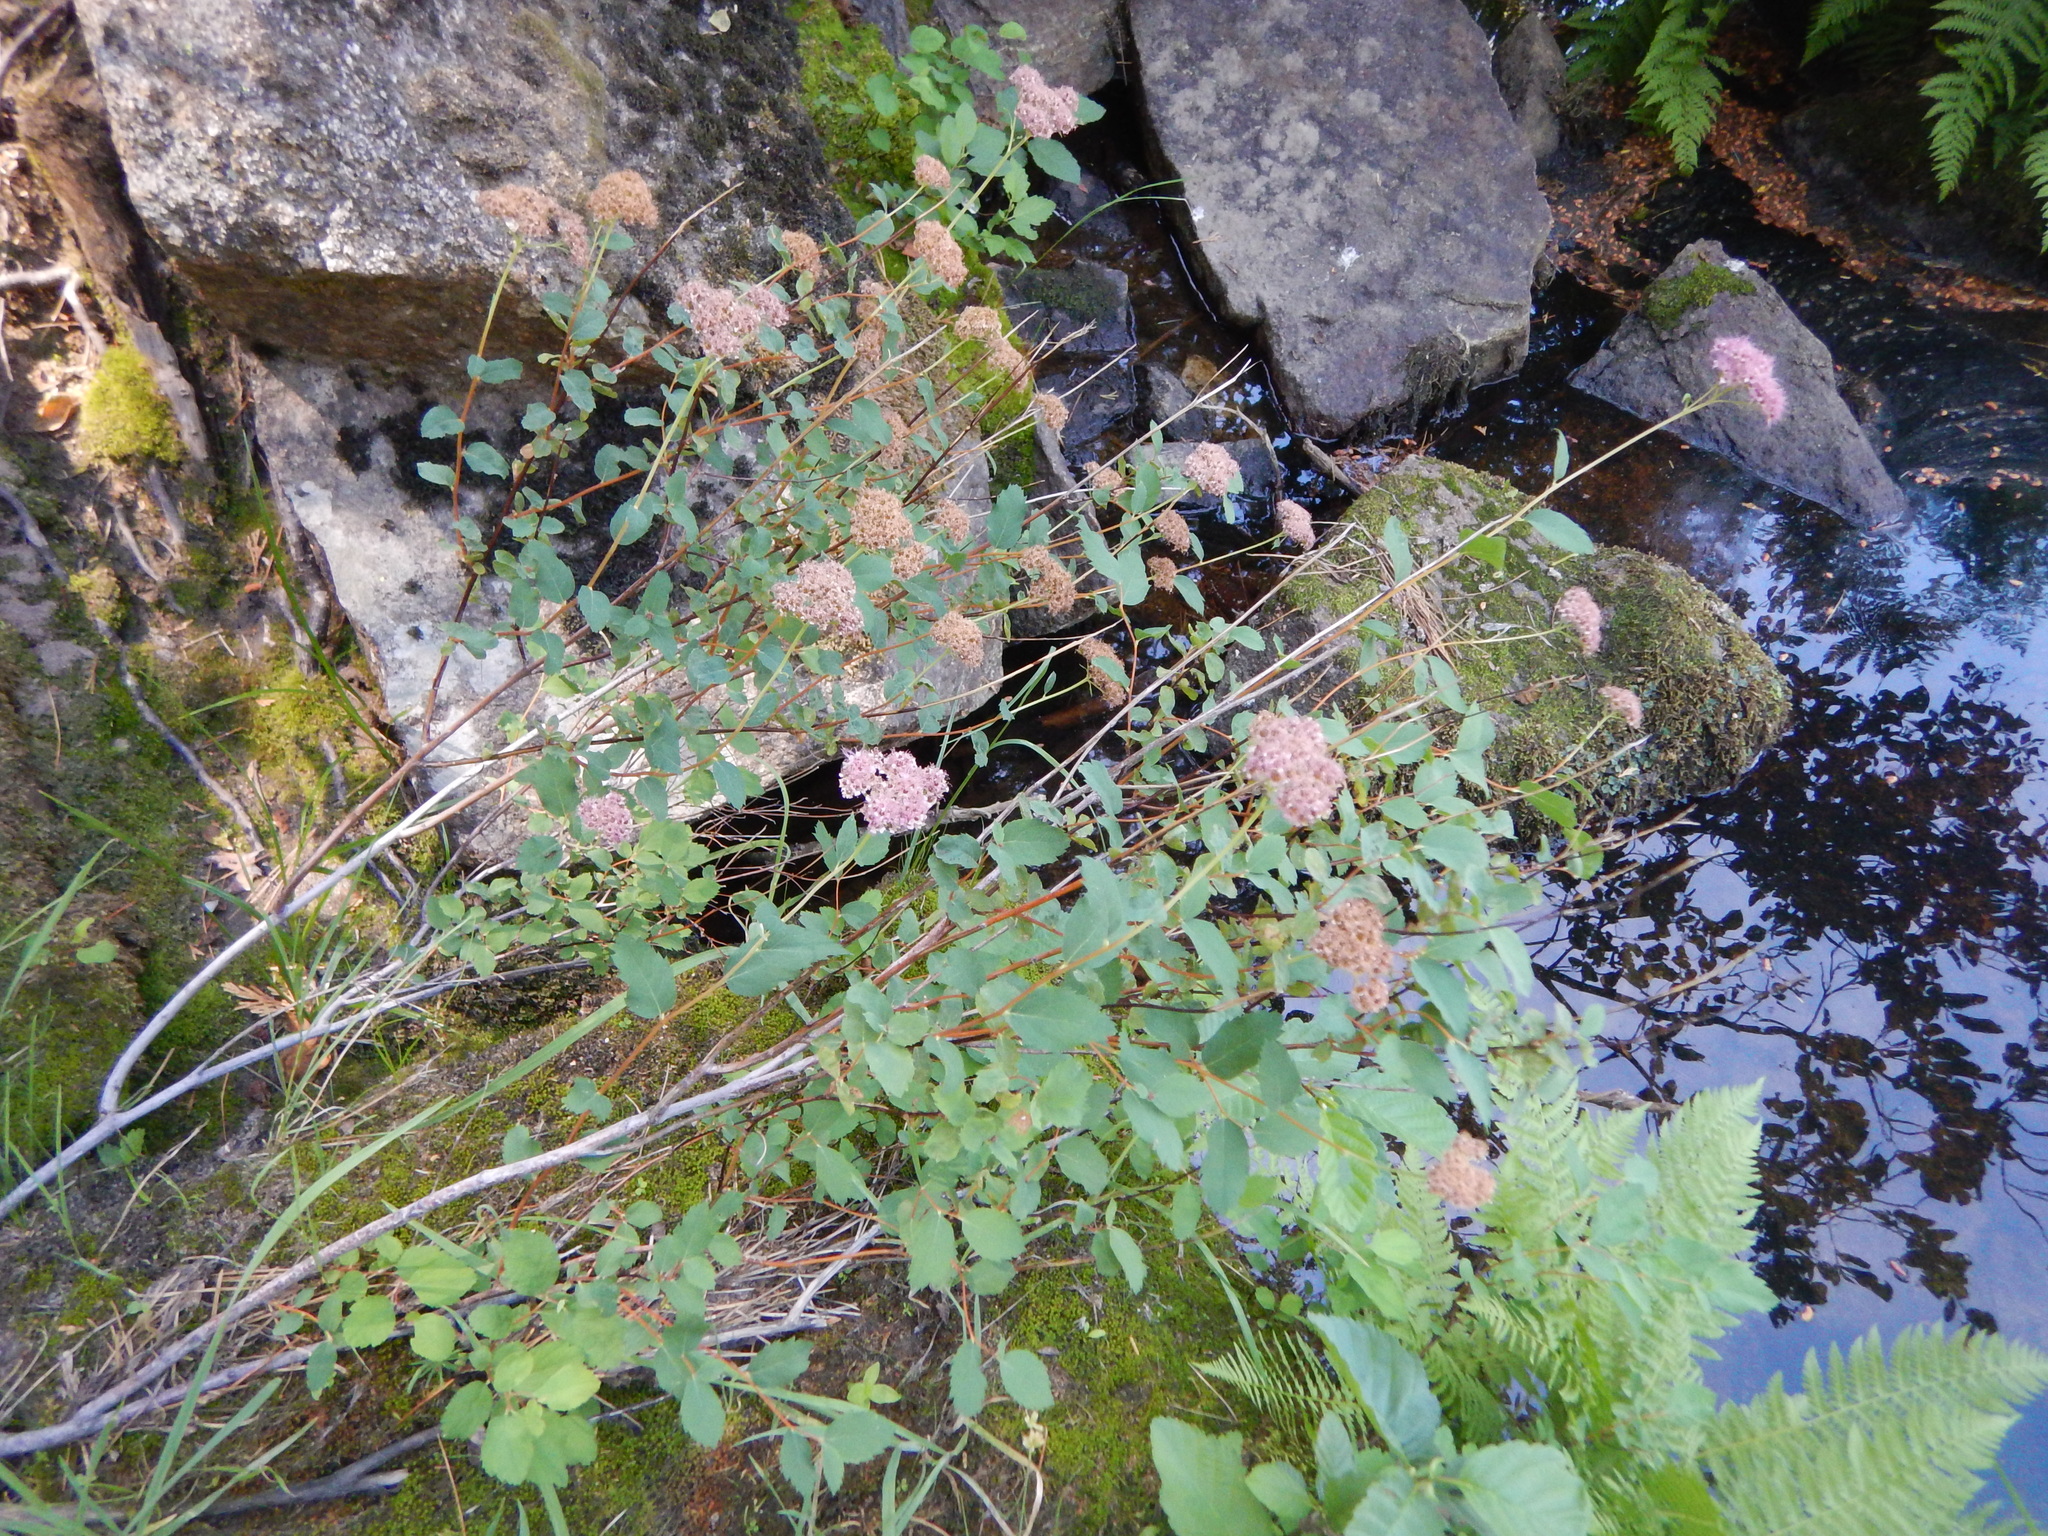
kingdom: Plantae
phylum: Tracheophyta
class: Magnoliopsida
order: Rosales
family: Rosaceae
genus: Spiraea
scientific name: Spiraea splendens
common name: Subalpine meadowsweet
